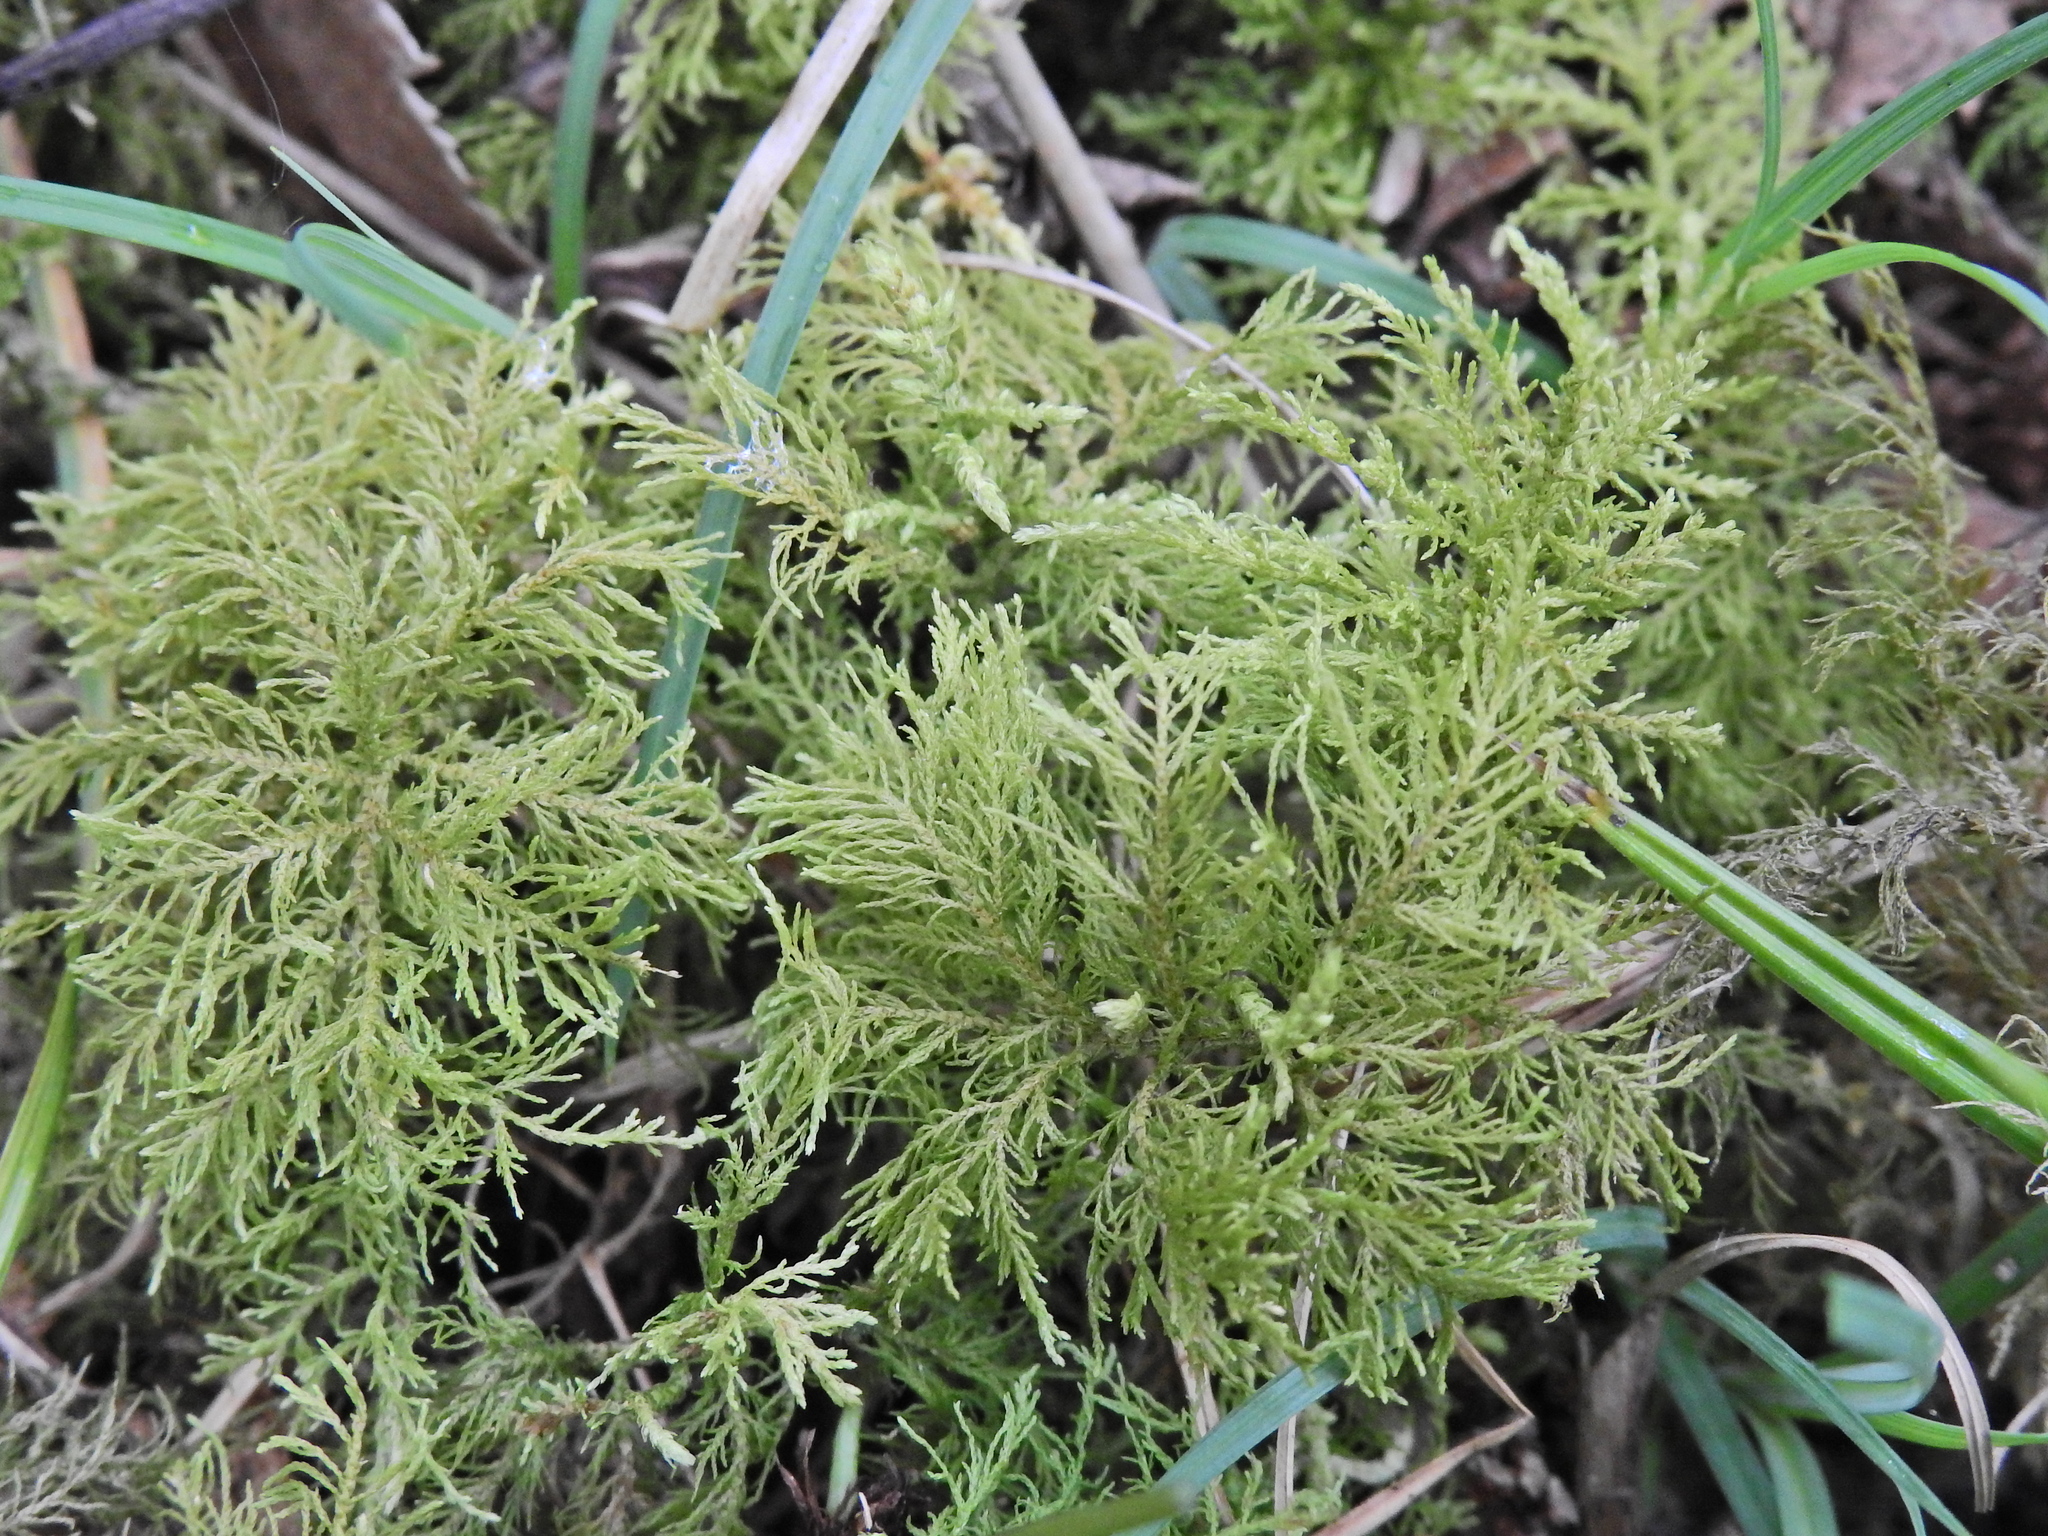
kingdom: Plantae
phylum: Bryophyta
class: Bryopsida
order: Hypnales
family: Thuidiaceae
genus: Thuidium
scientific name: Thuidium tamariscinum
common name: Common tamarisk-moss
